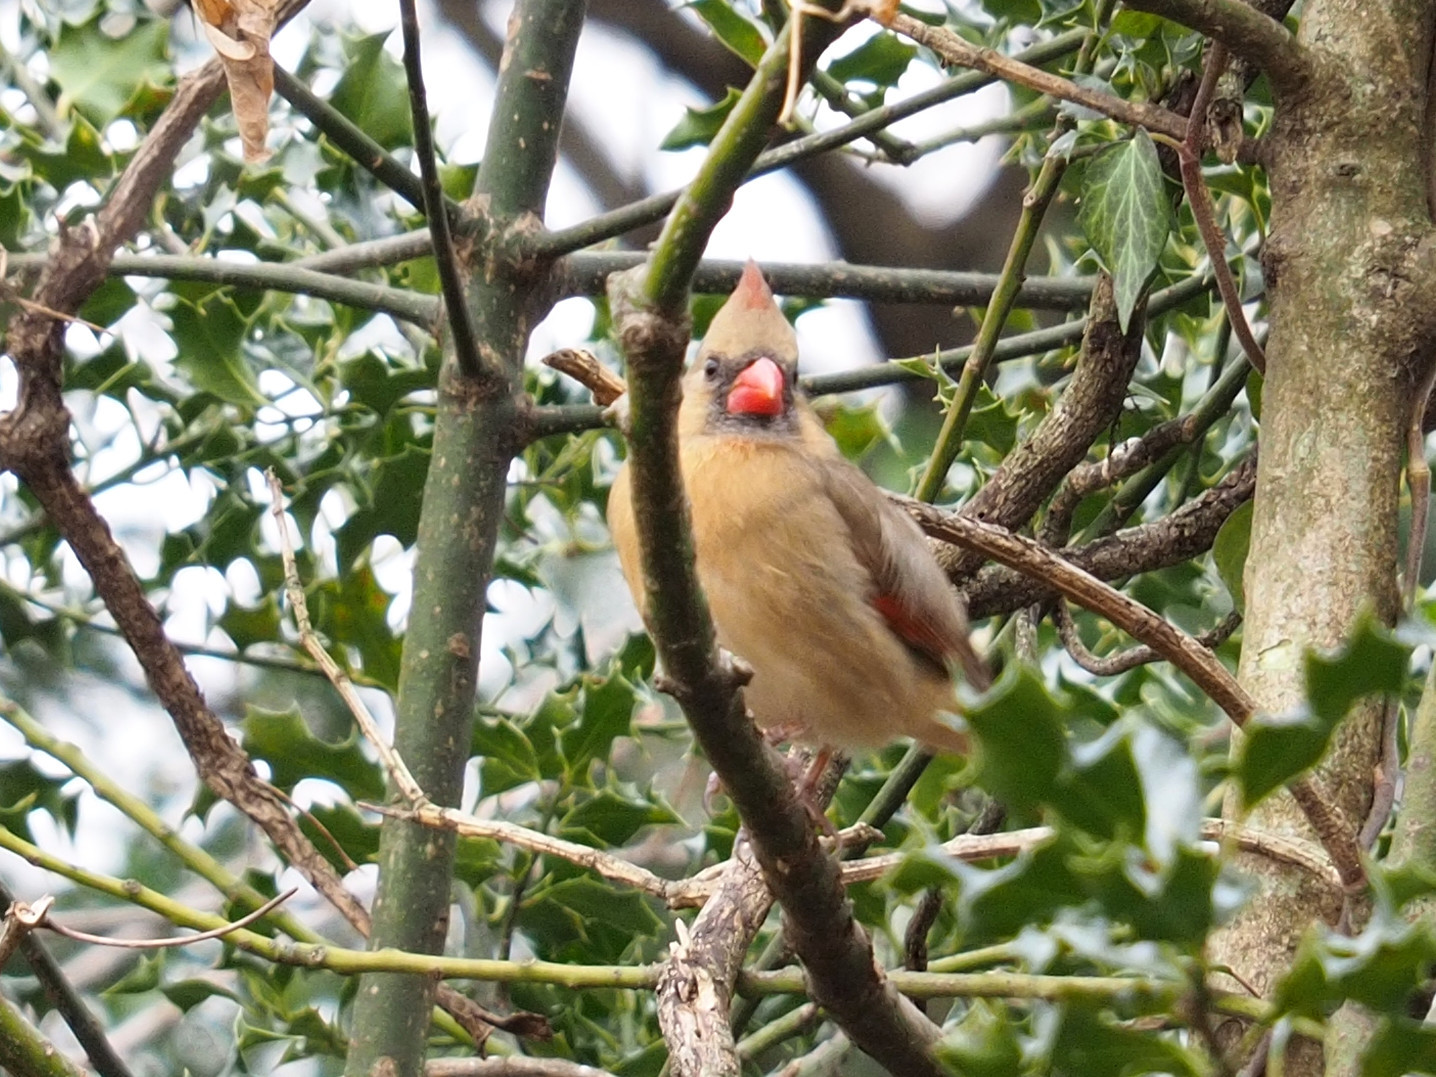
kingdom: Animalia
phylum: Chordata
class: Aves
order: Passeriformes
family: Cardinalidae
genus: Cardinalis
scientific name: Cardinalis cardinalis
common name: Northern cardinal
